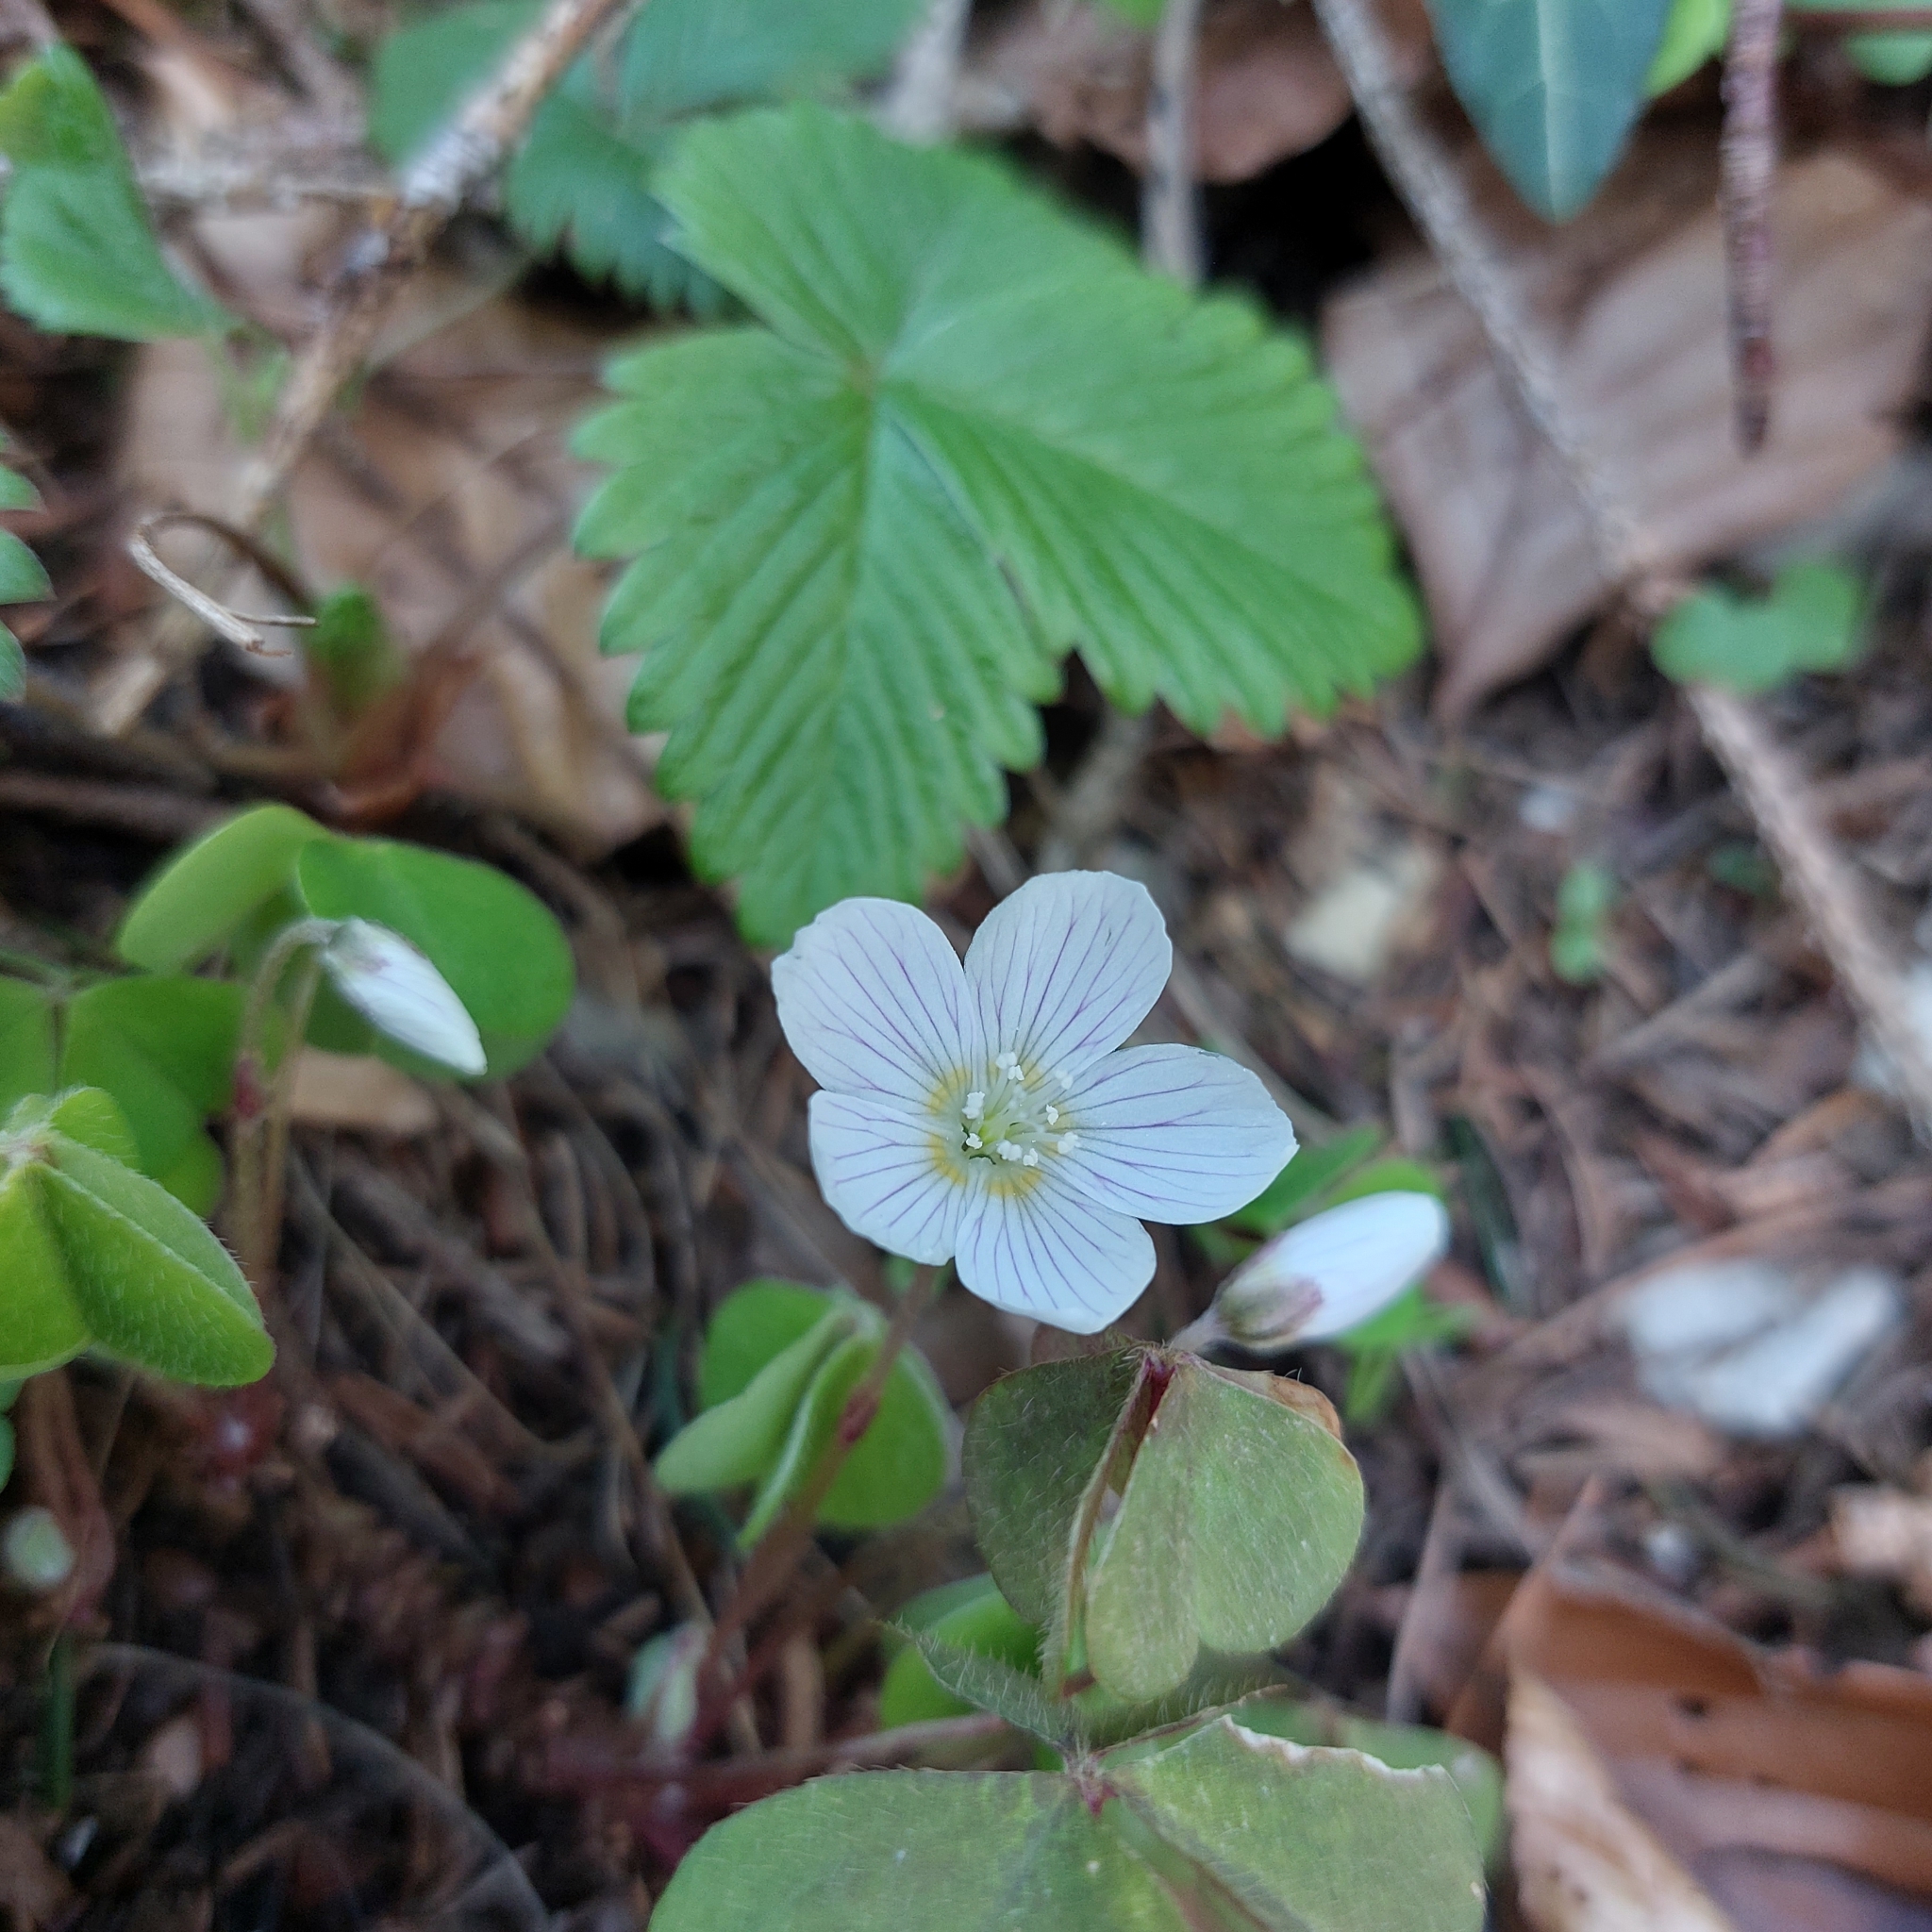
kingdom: Plantae
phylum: Tracheophyta
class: Magnoliopsida
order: Oxalidales
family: Oxalidaceae
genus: Oxalis
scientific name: Oxalis acetosella
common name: Wood-sorrel
